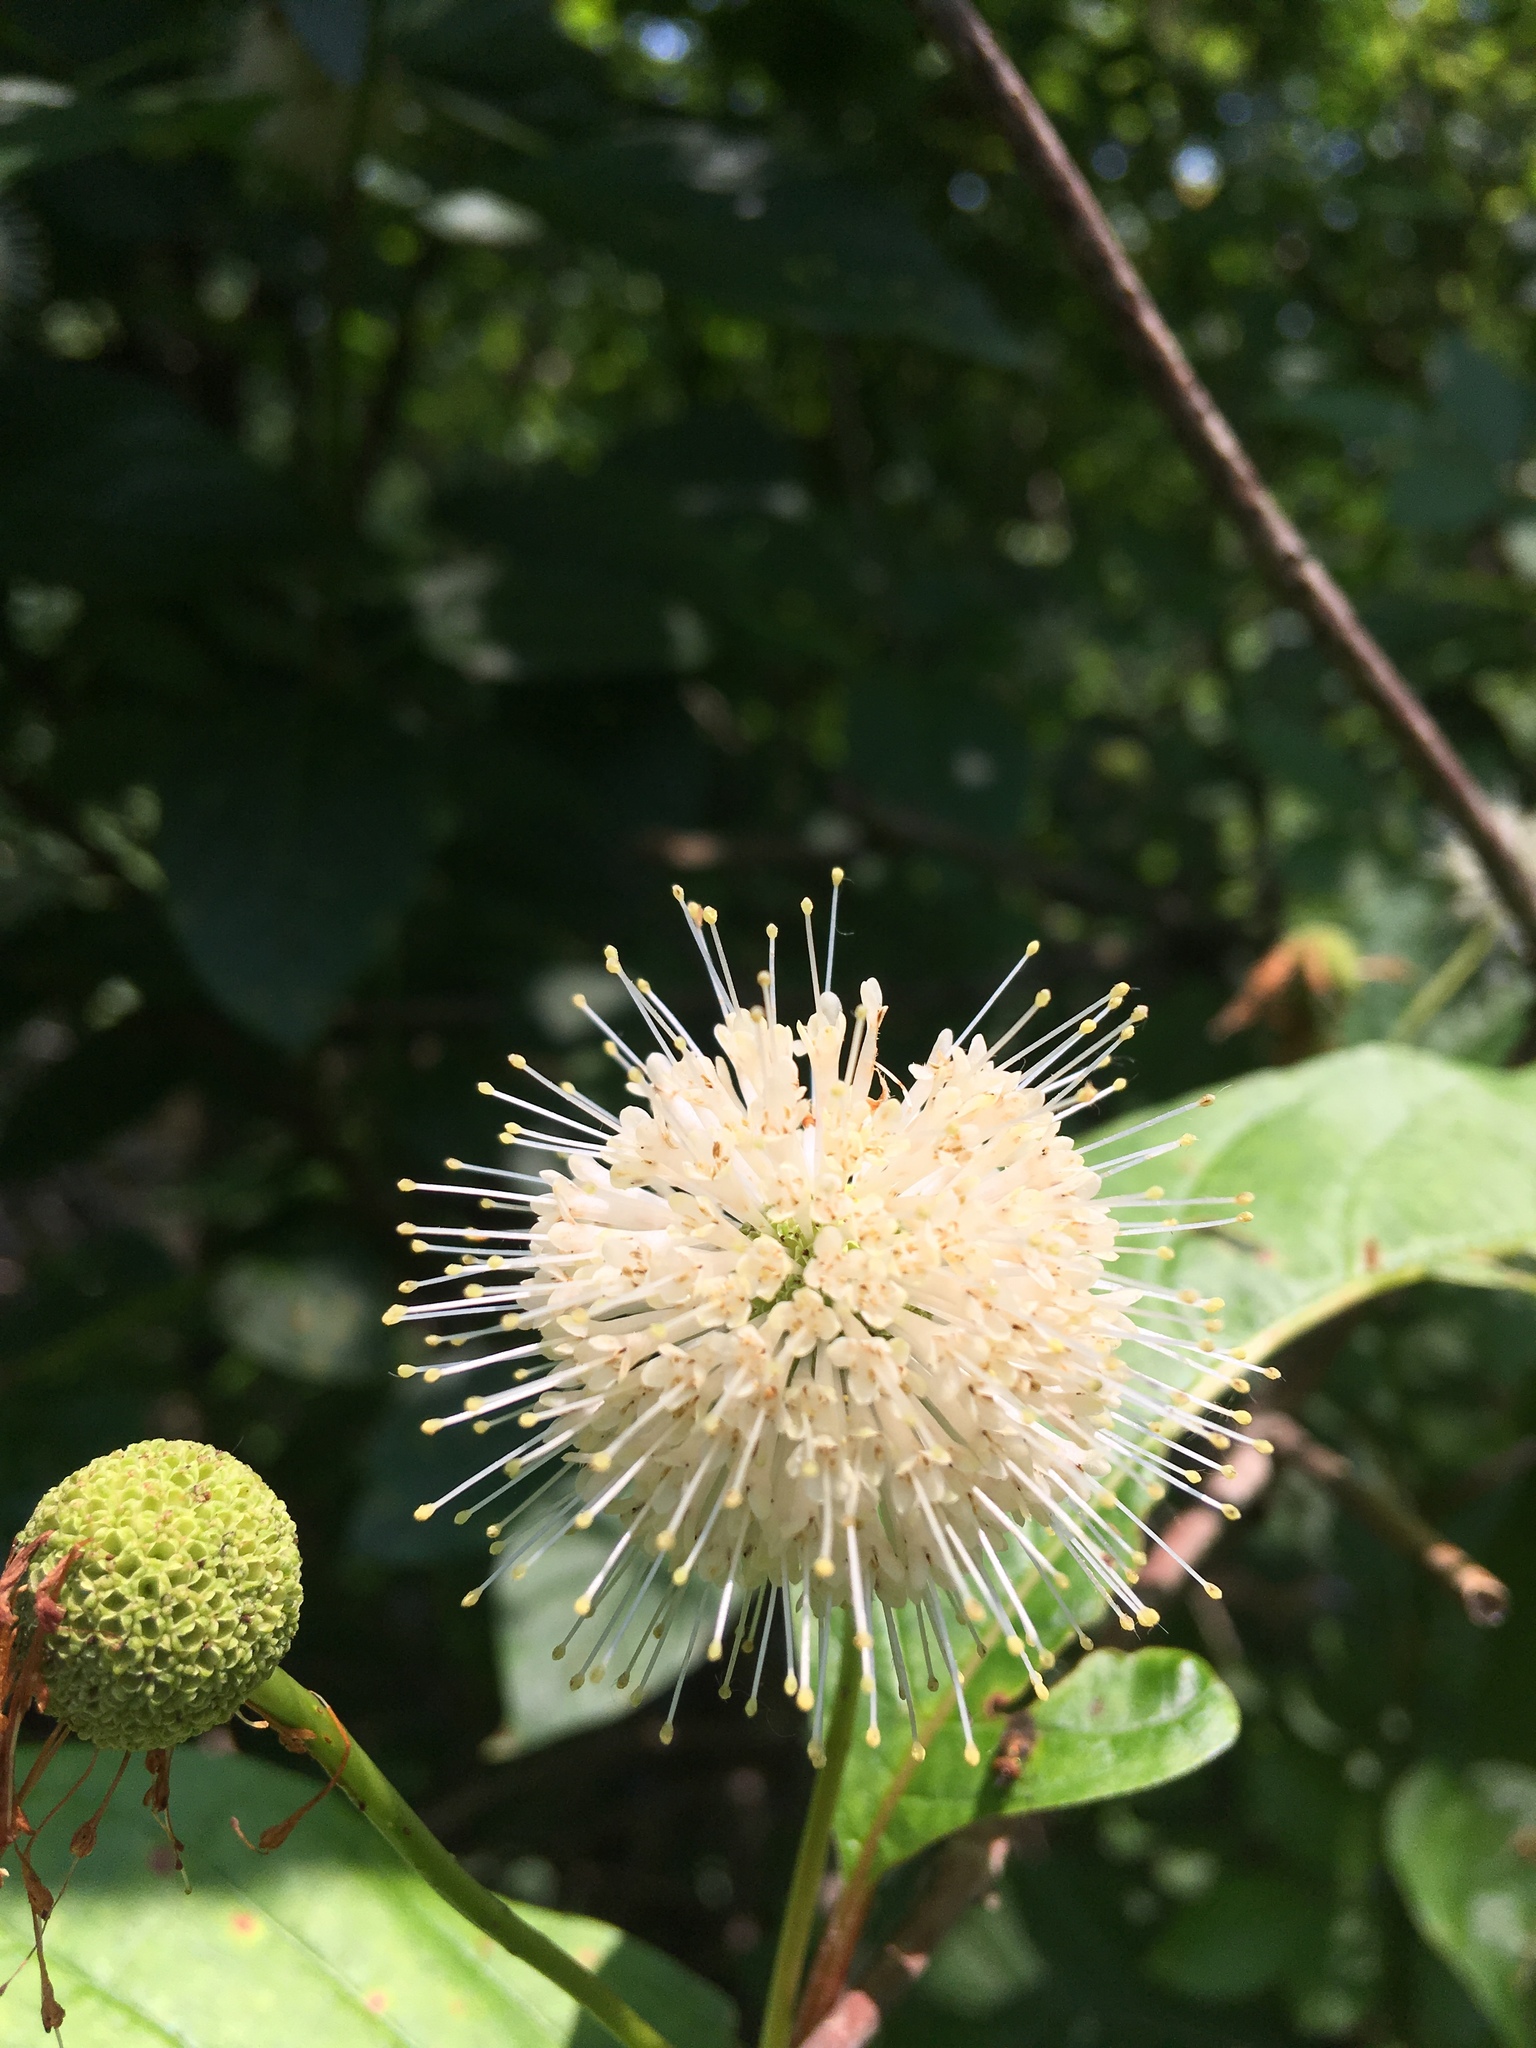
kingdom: Plantae
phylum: Tracheophyta
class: Magnoliopsida
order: Gentianales
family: Rubiaceae
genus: Cephalanthus
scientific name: Cephalanthus occidentalis
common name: Button-willow
